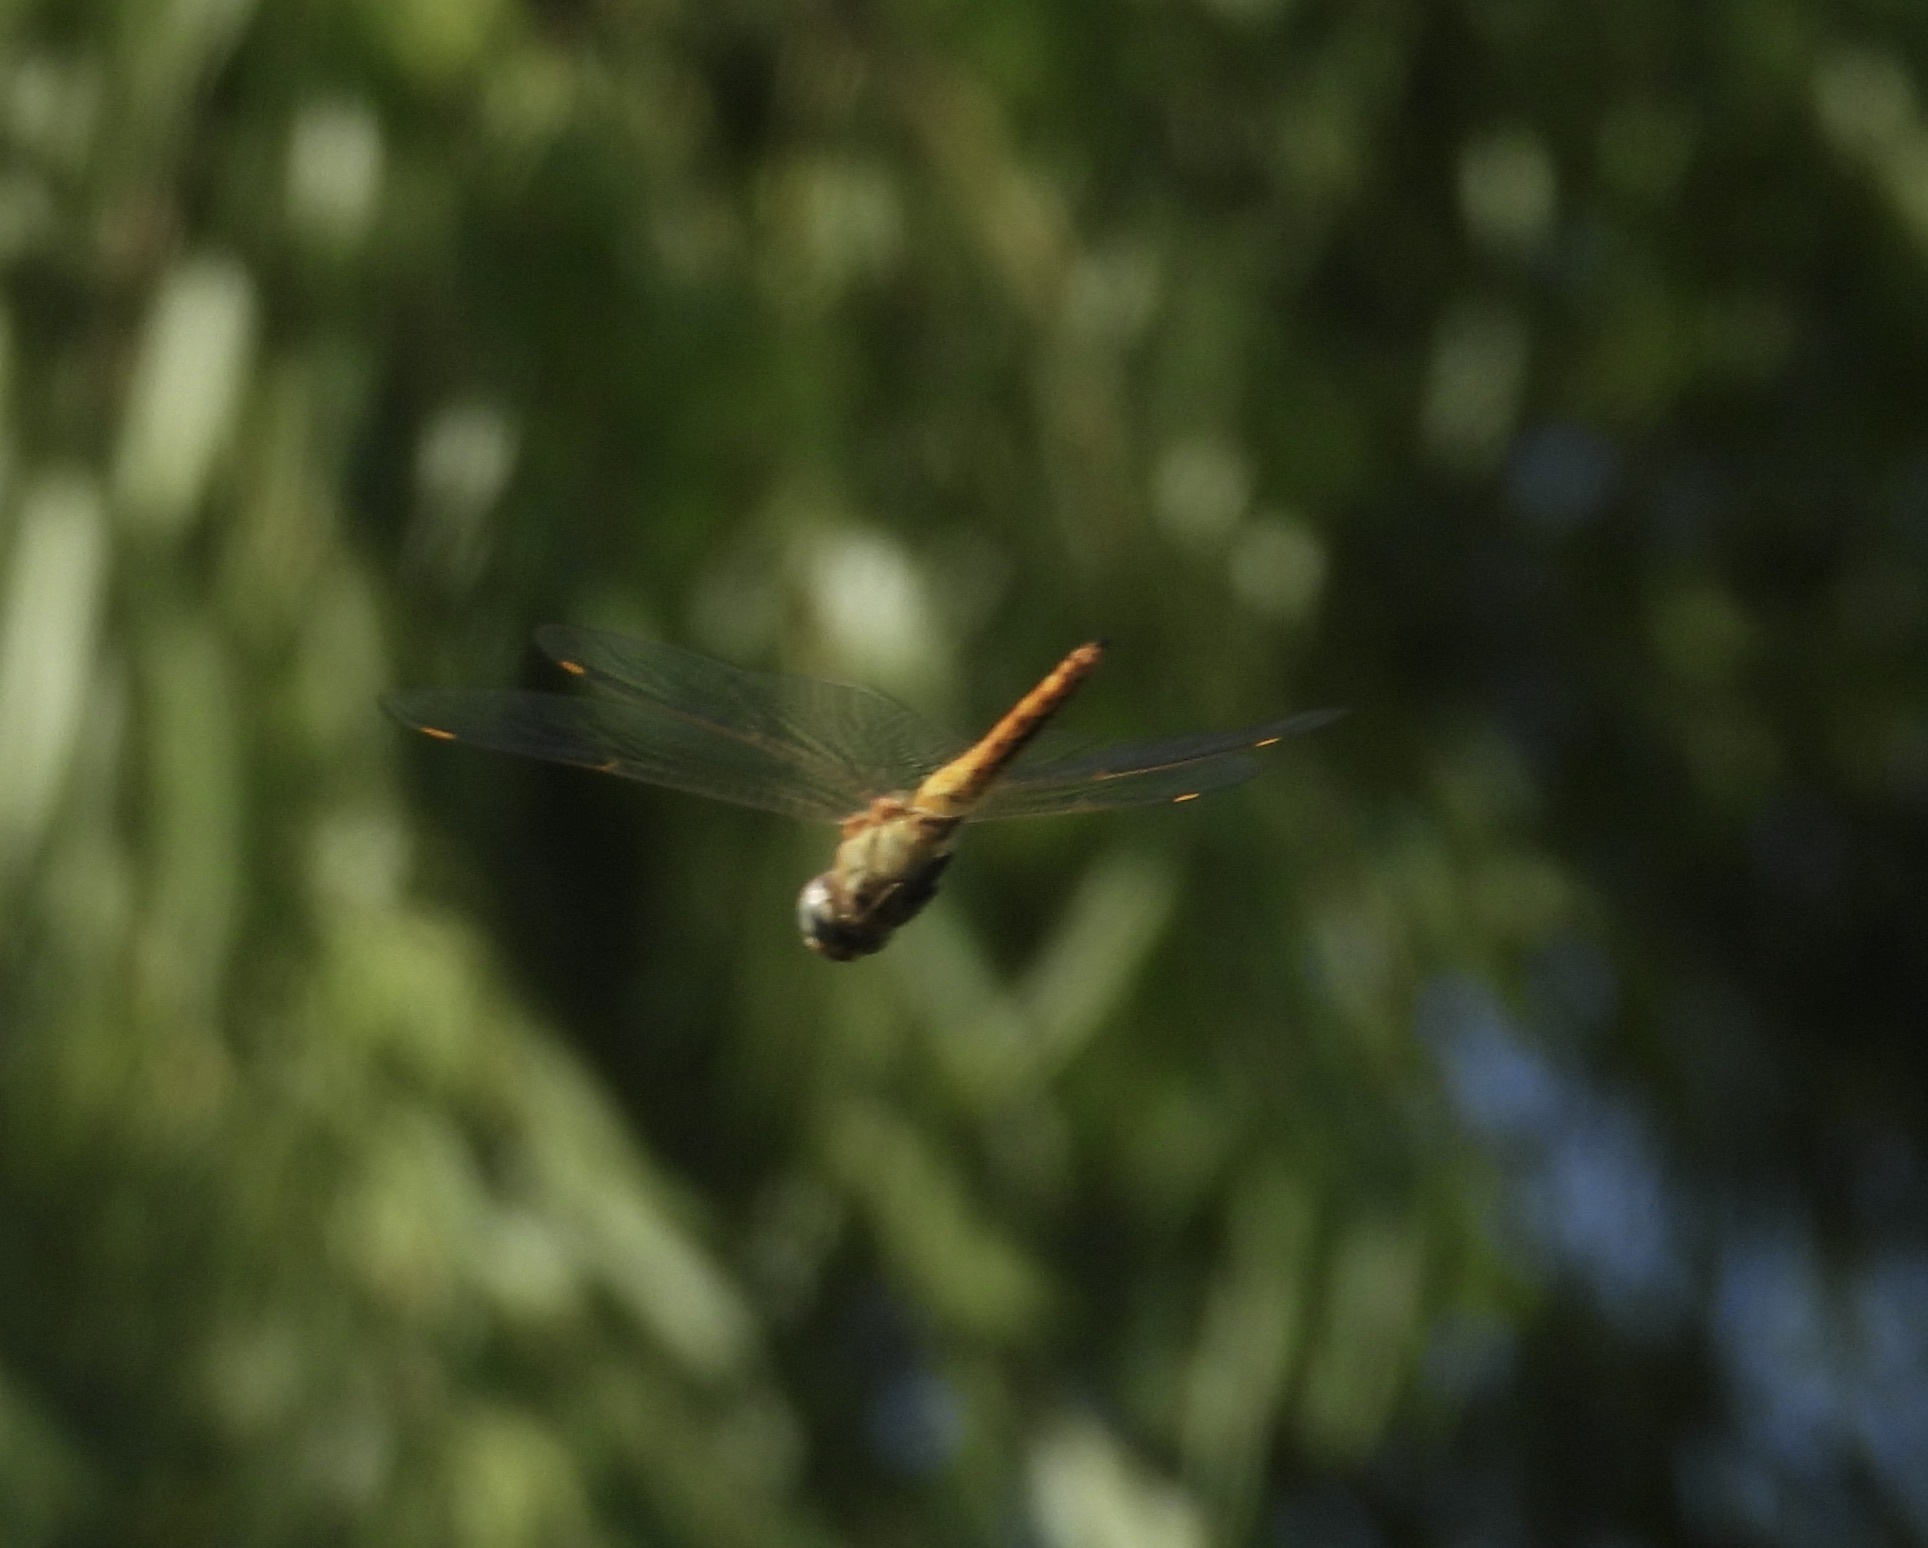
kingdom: Animalia
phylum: Arthropoda
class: Insecta
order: Odonata
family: Libellulidae
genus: Pantala
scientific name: Pantala flavescens
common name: Wandering glider
